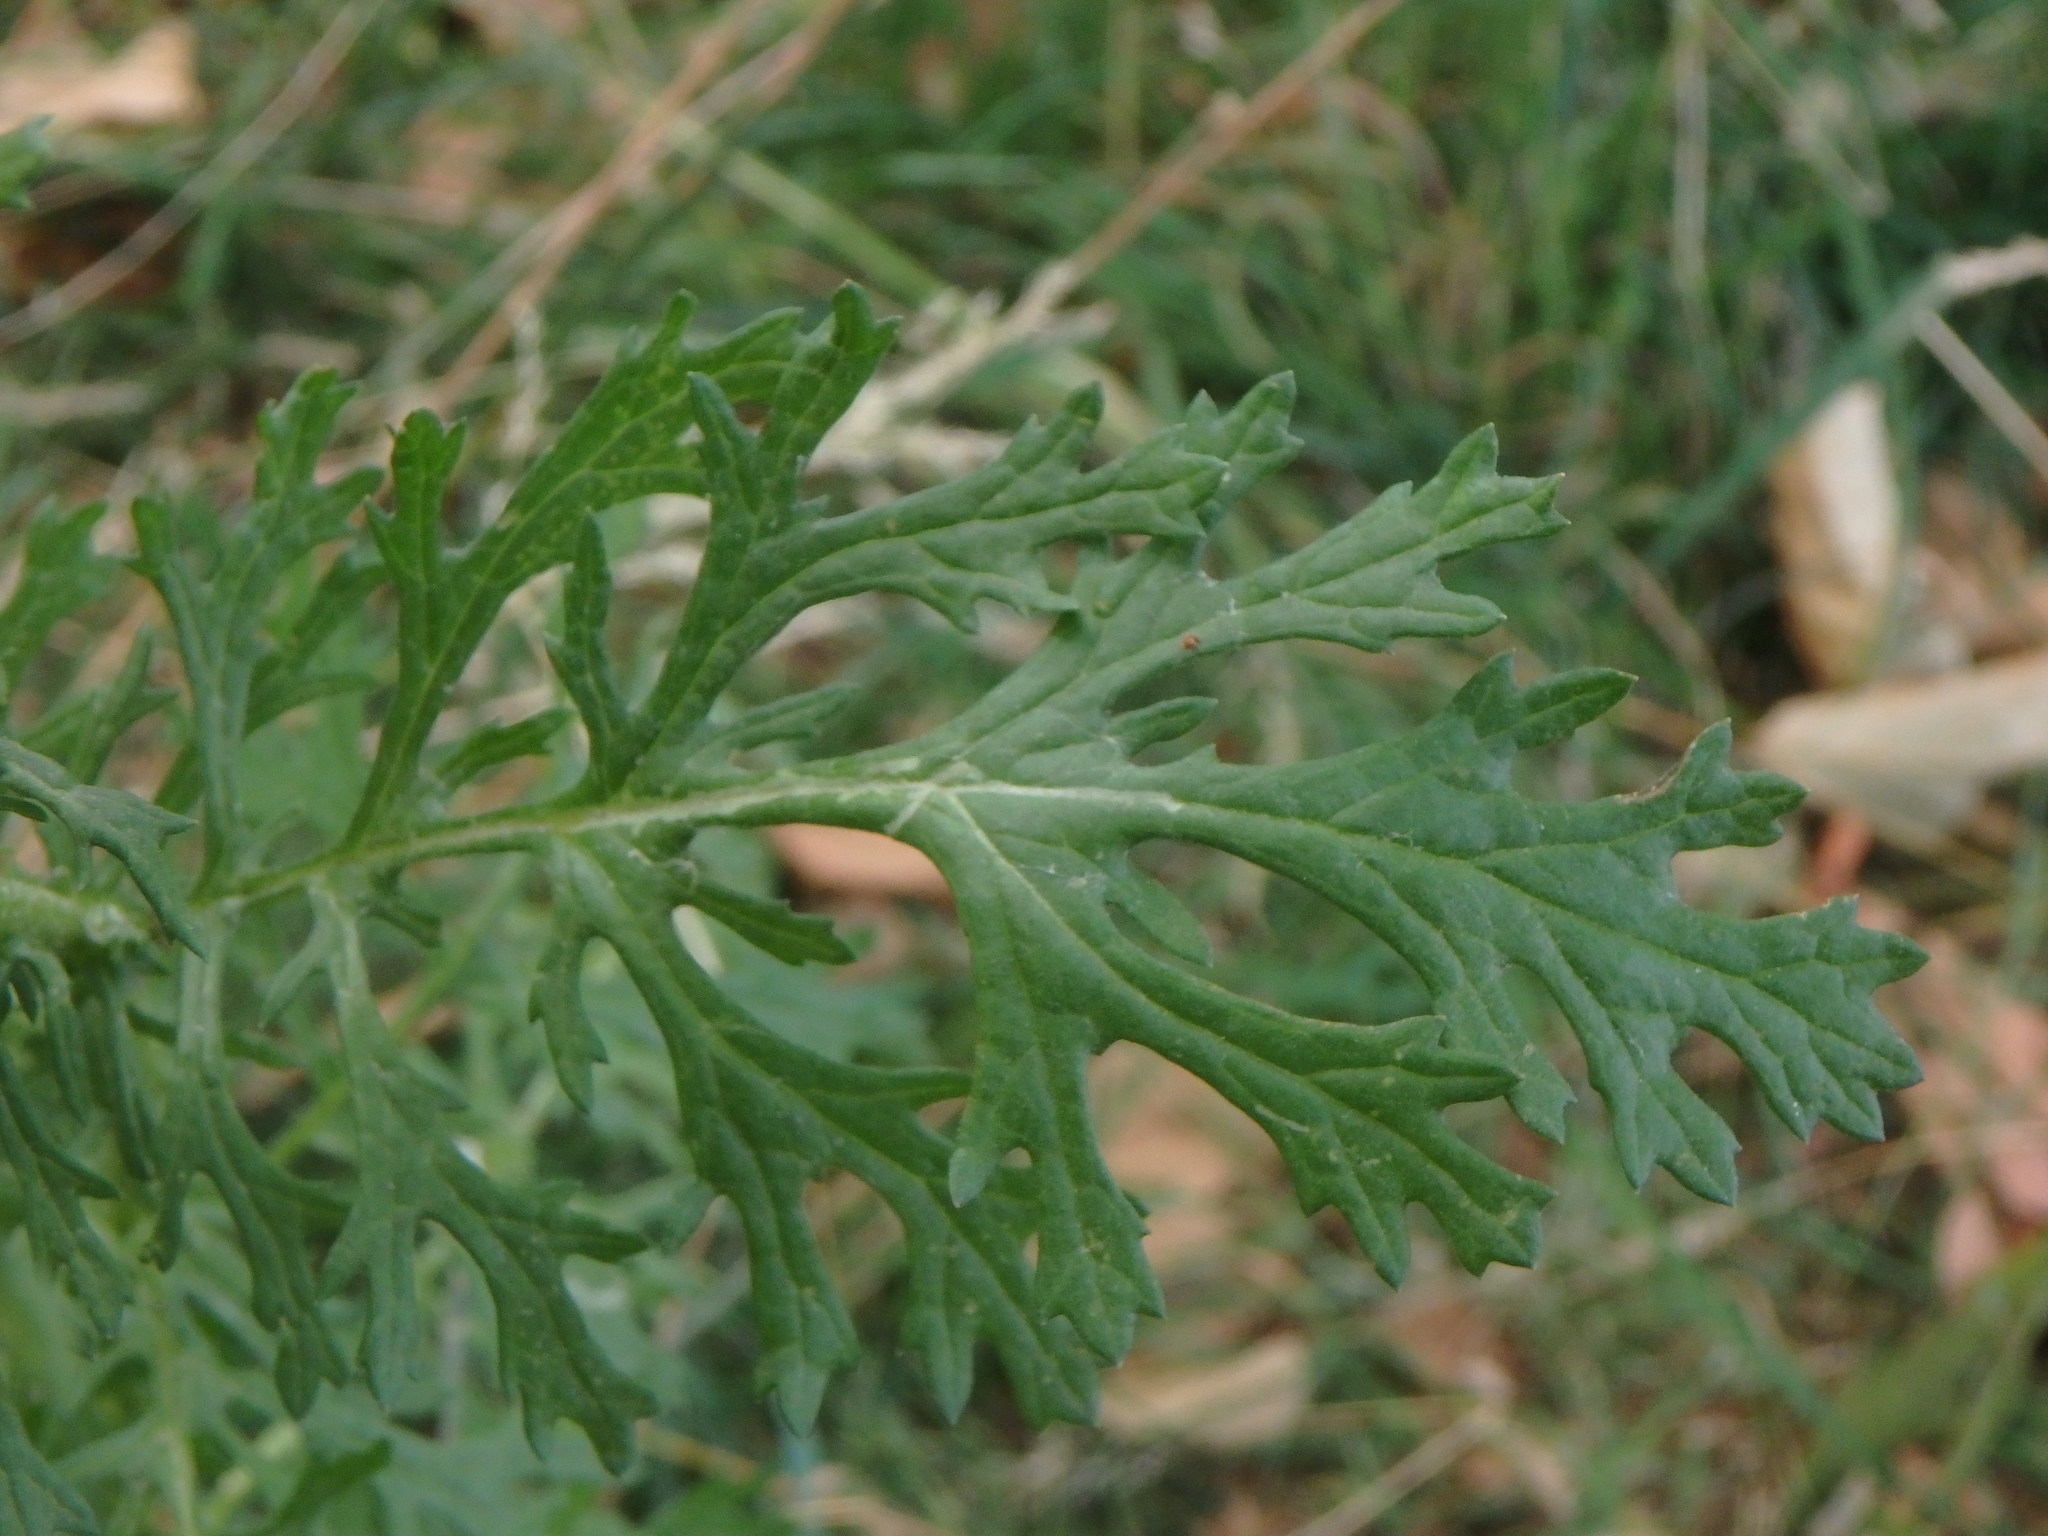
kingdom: Plantae
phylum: Tracheophyta
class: Magnoliopsida
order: Asterales
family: Asteraceae
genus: Jacobaea
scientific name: Jacobaea vulgaris
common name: Stinking willie
